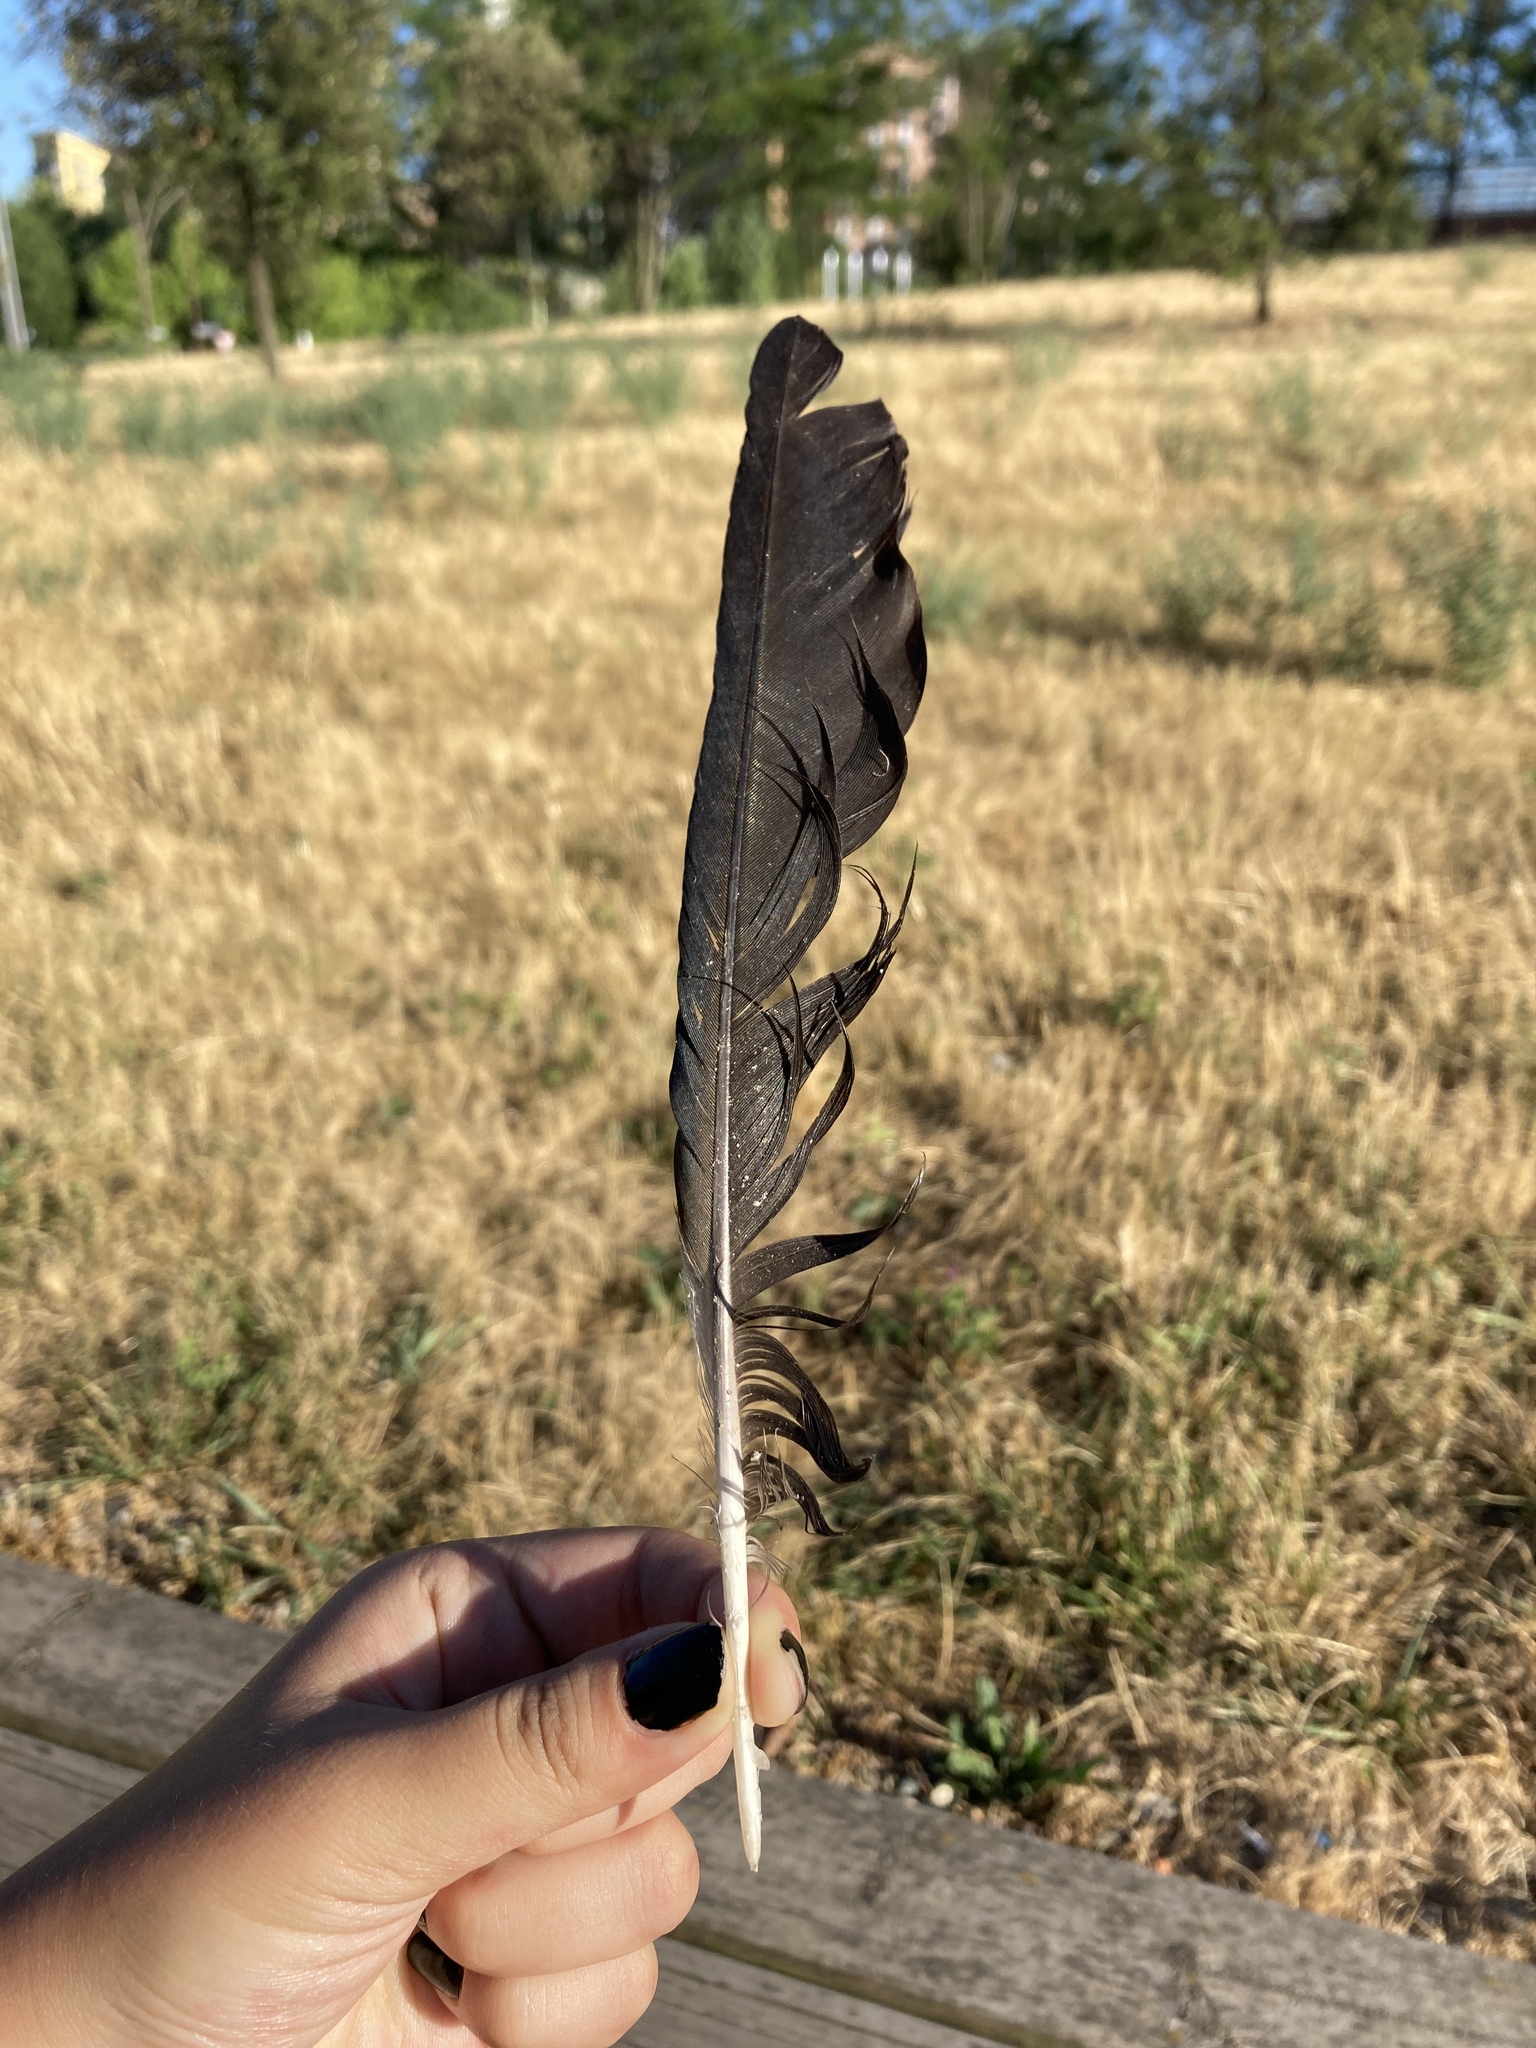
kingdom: Animalia
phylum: Chordata
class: Aves
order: Passeriformes
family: Corvidae
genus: Corvus
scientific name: Corvus cornix
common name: Hooded crow
